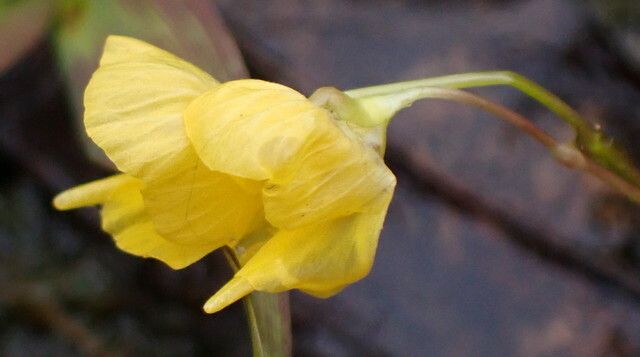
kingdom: Plantae
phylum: Tracheophyta
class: Magnoliopsida
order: Lamiales
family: Lentibulariaceae
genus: Utricularia
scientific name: Utricularia gibba
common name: Humped bladderwort
